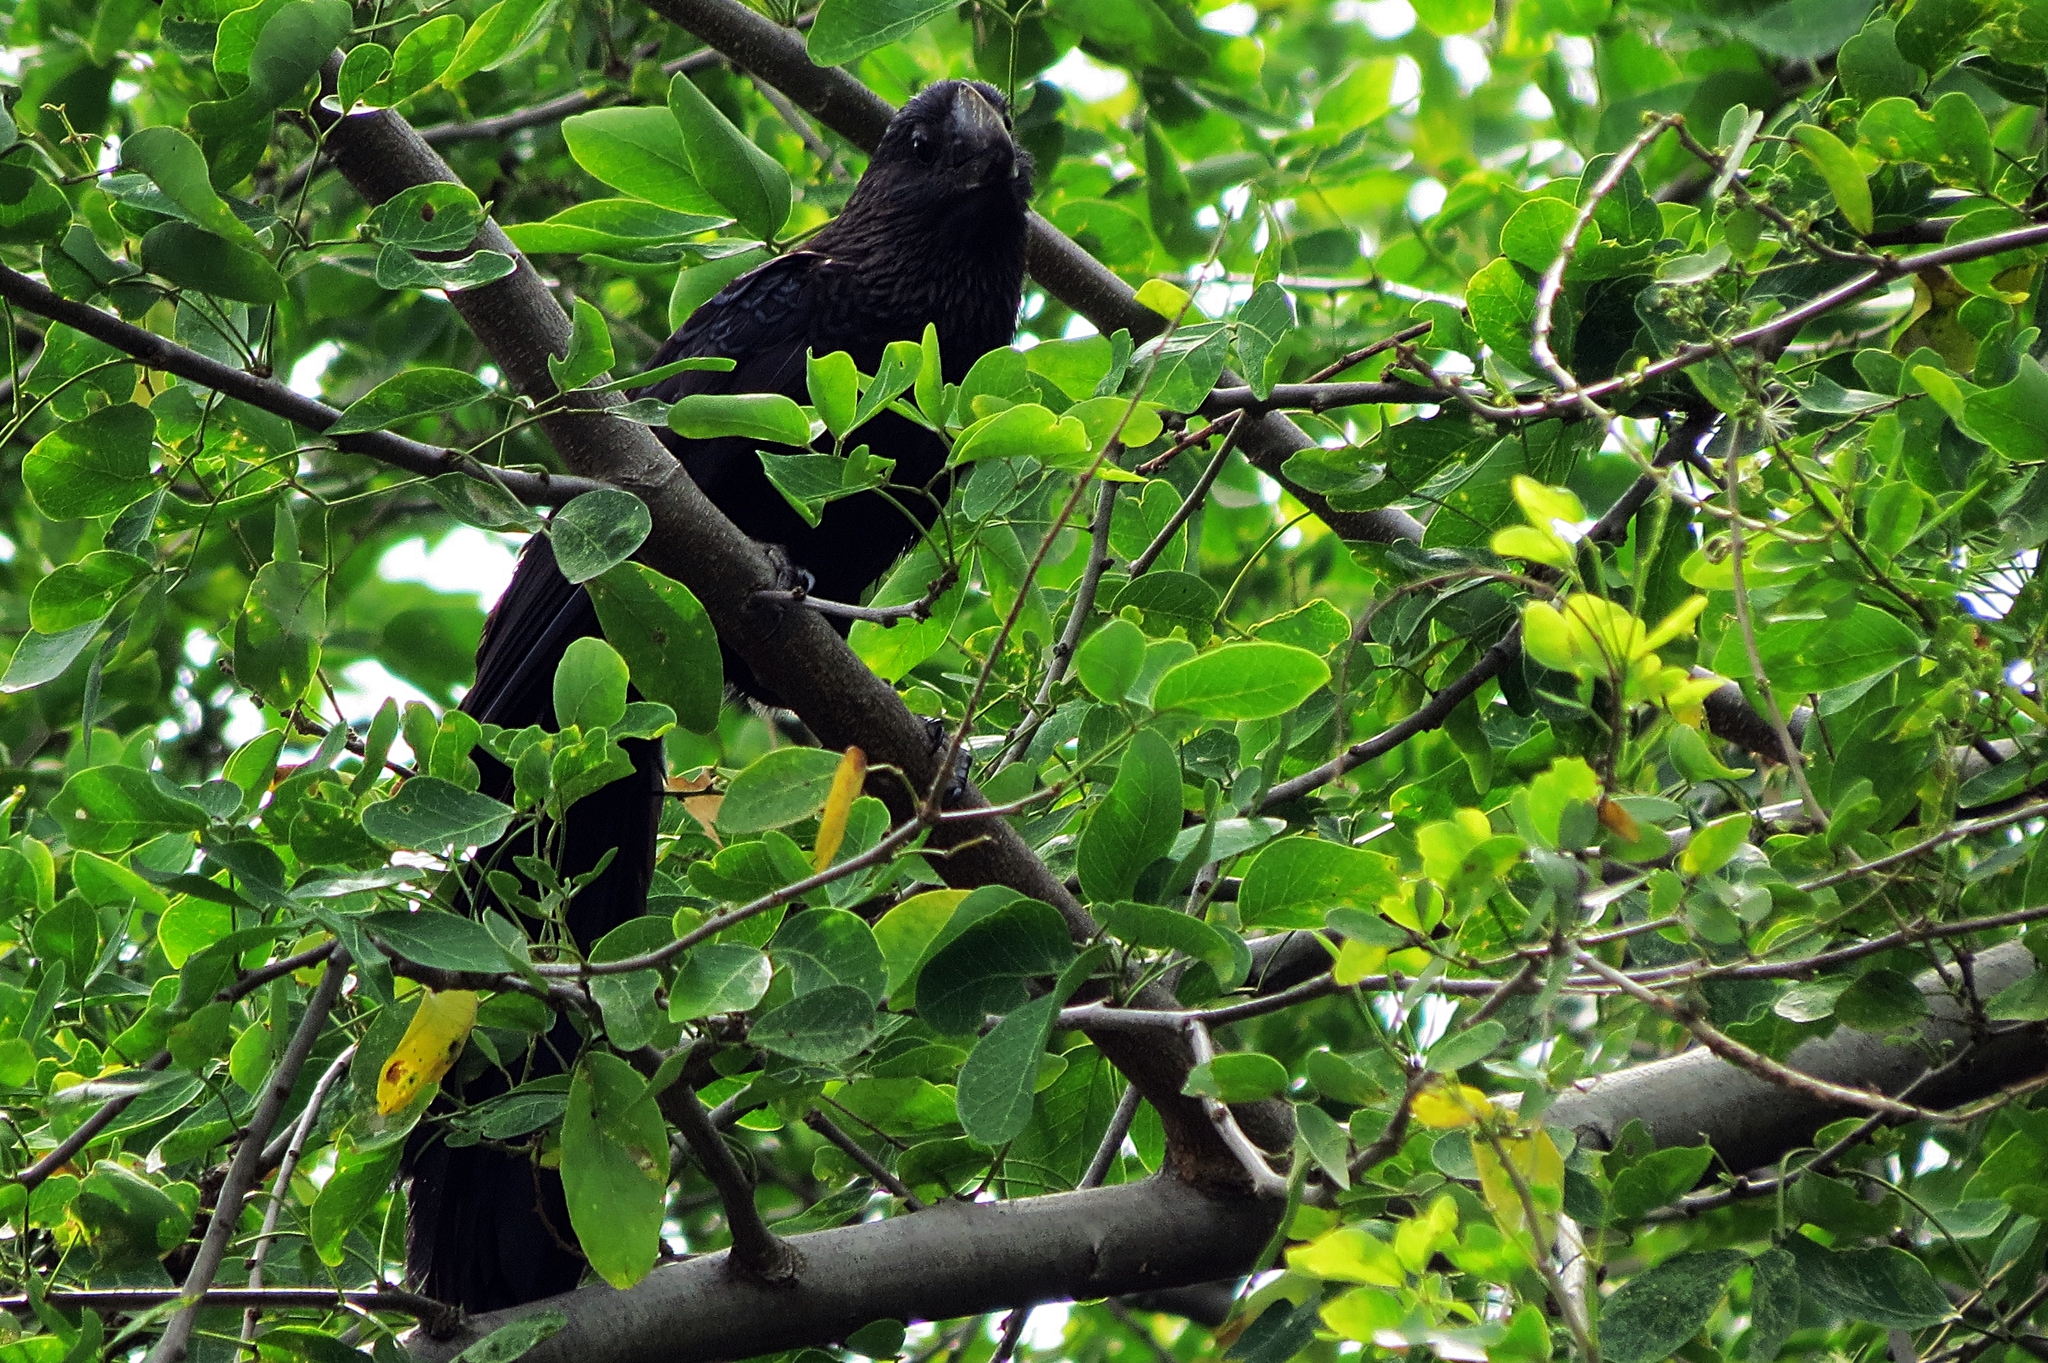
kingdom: Animalia
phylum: Chordata
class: Aves
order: Cuculiformes
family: Cuculidae
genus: Crotophaga
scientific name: Crotophaga ani
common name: Smooth-billed ani
